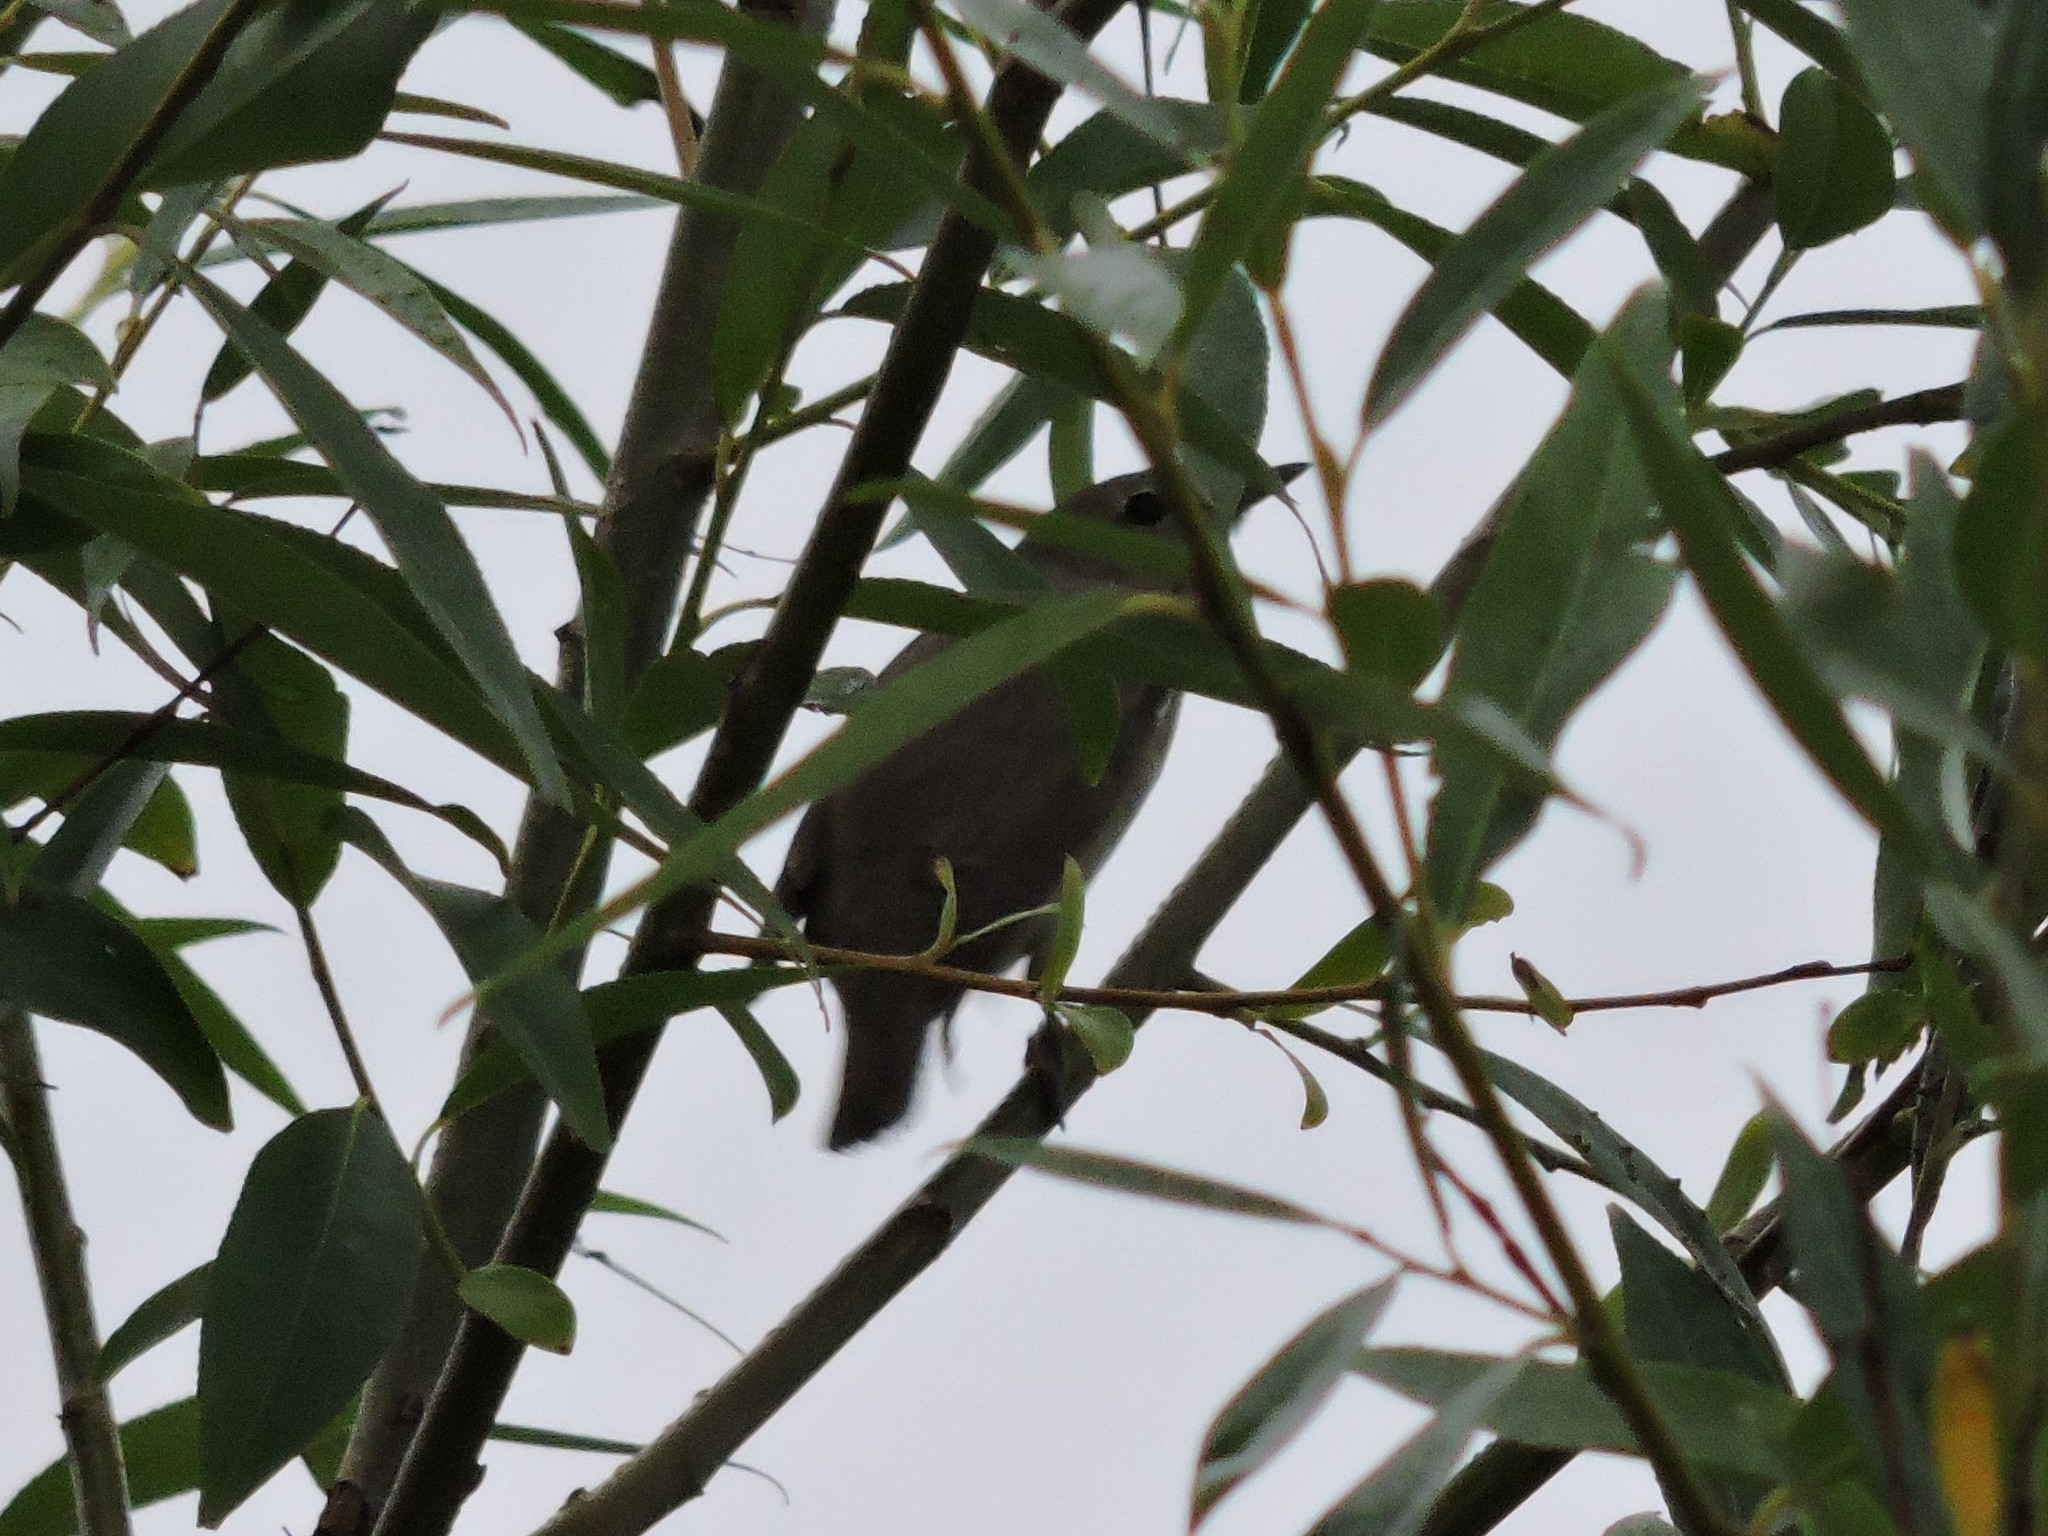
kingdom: Animalia
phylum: Chordata
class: Aves
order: Passeriformes
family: Sylviidae
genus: Sylvia
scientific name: Sylvia borin
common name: Garden warbler
